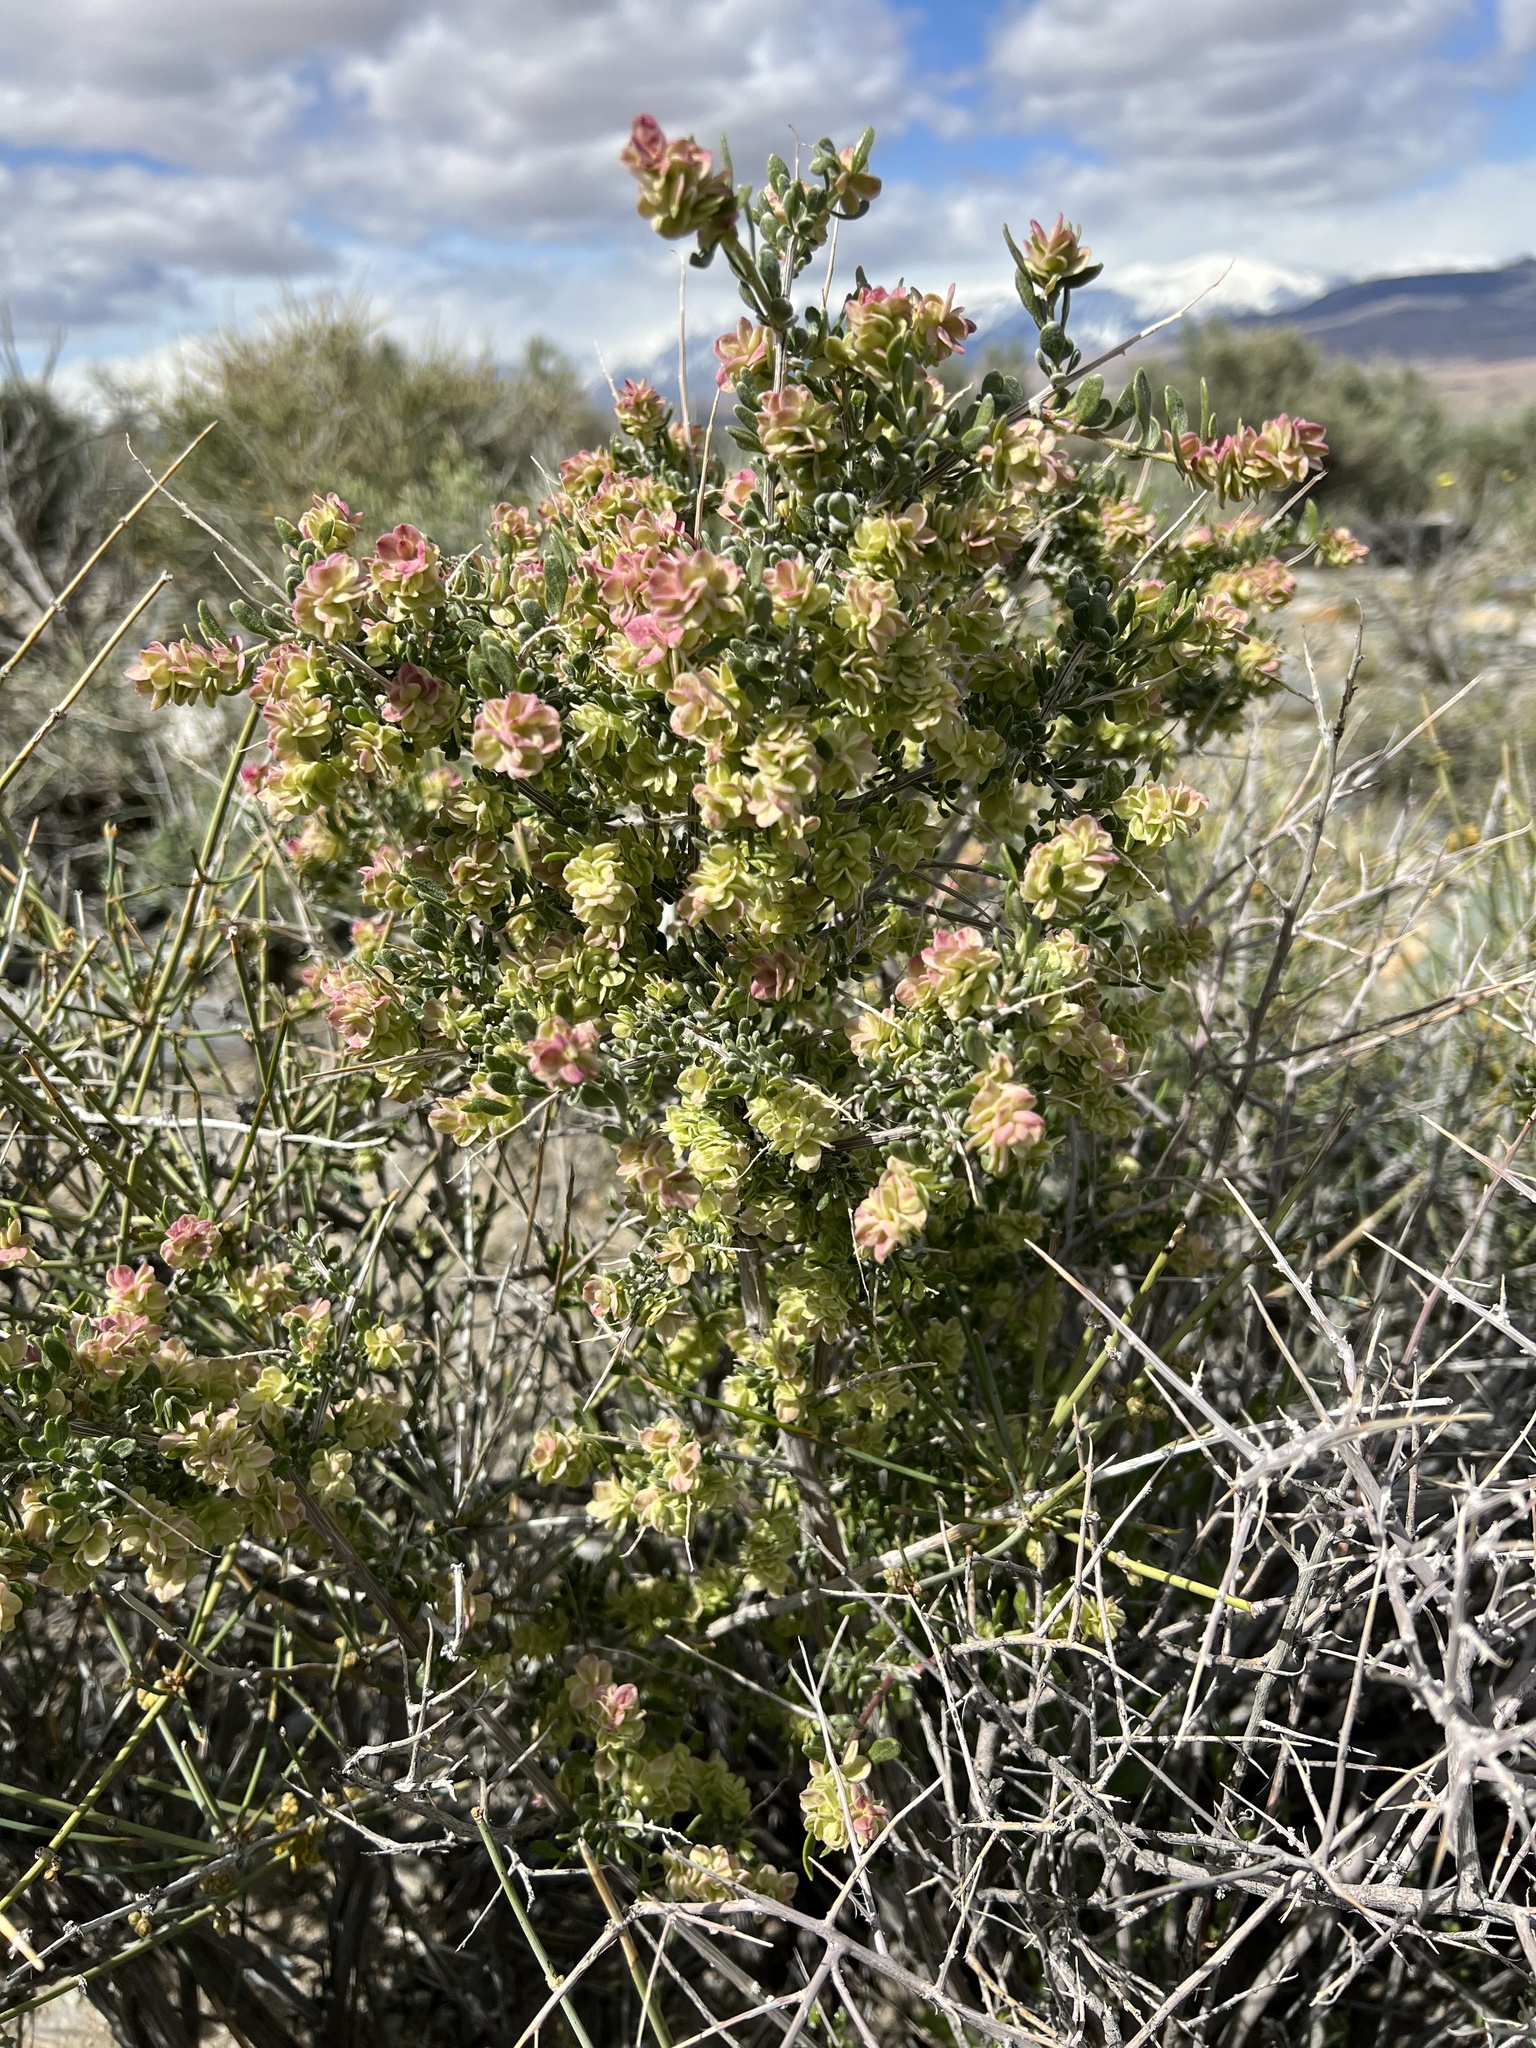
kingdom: Plantae
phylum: Tracheophyta
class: Magnoliopsida
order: Caryophyllales
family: Amaranthaceae
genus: Grayia
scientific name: Grayia spinosa
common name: Spiny hopsage
